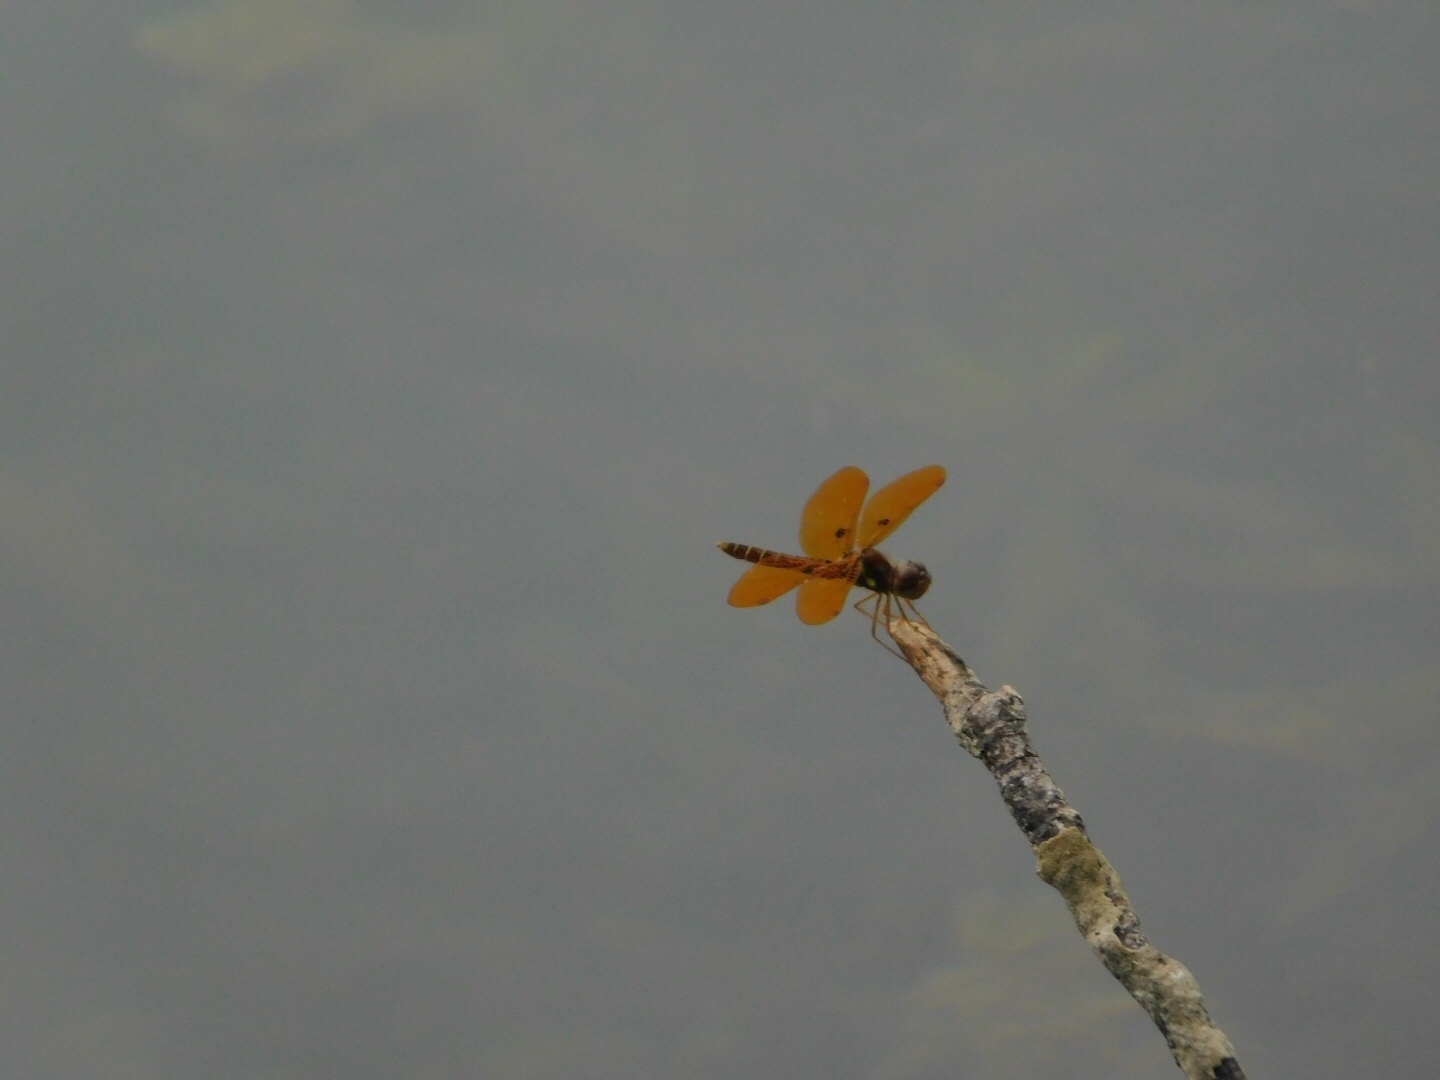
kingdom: Animalia
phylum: Arthropoda
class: Insecta
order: Odonata
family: Libellulidae
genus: Perithemis
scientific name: Perithemis tenera
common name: Eastern amberwing
